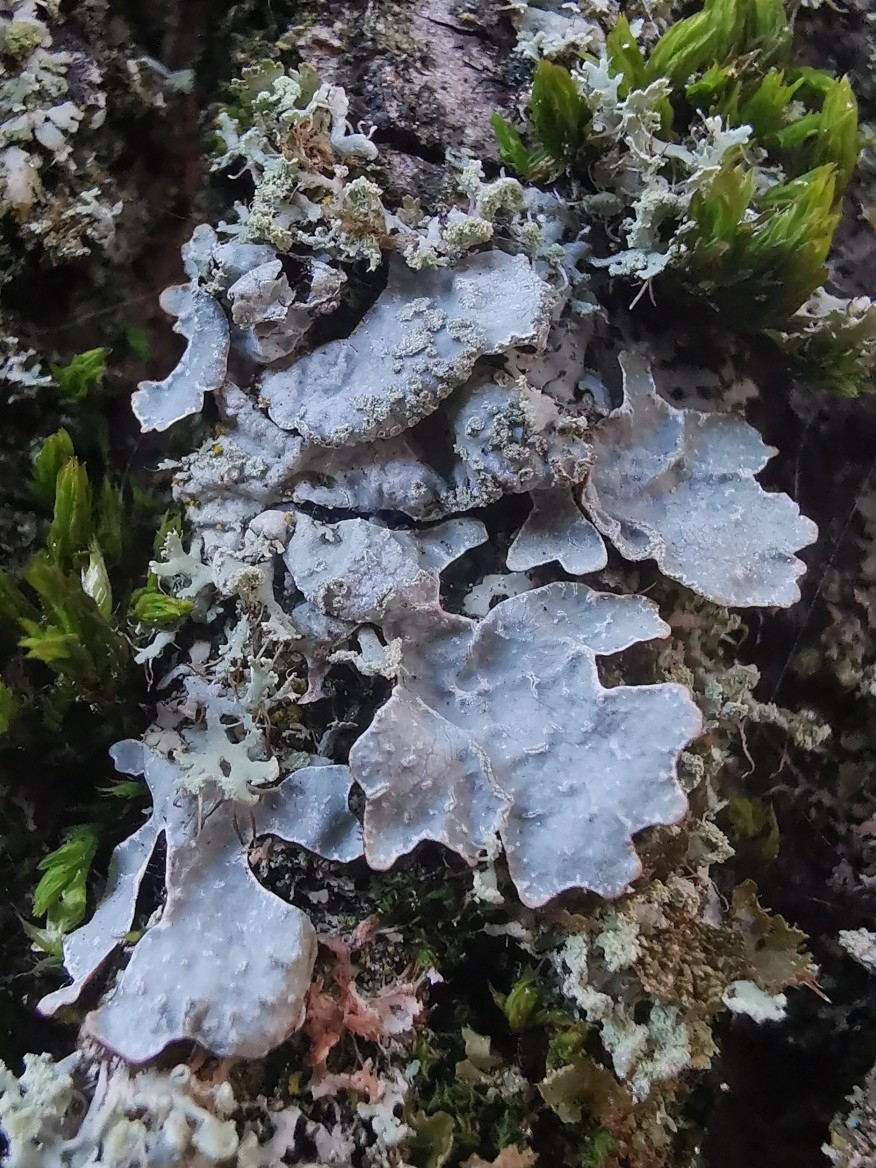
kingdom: Fungi
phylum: Ascomycota
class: Lecanoromycetes
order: Lecanorales
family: Parmeliaceae
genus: Parmelia
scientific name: Parmelia sulcata
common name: Netted shield lichen
